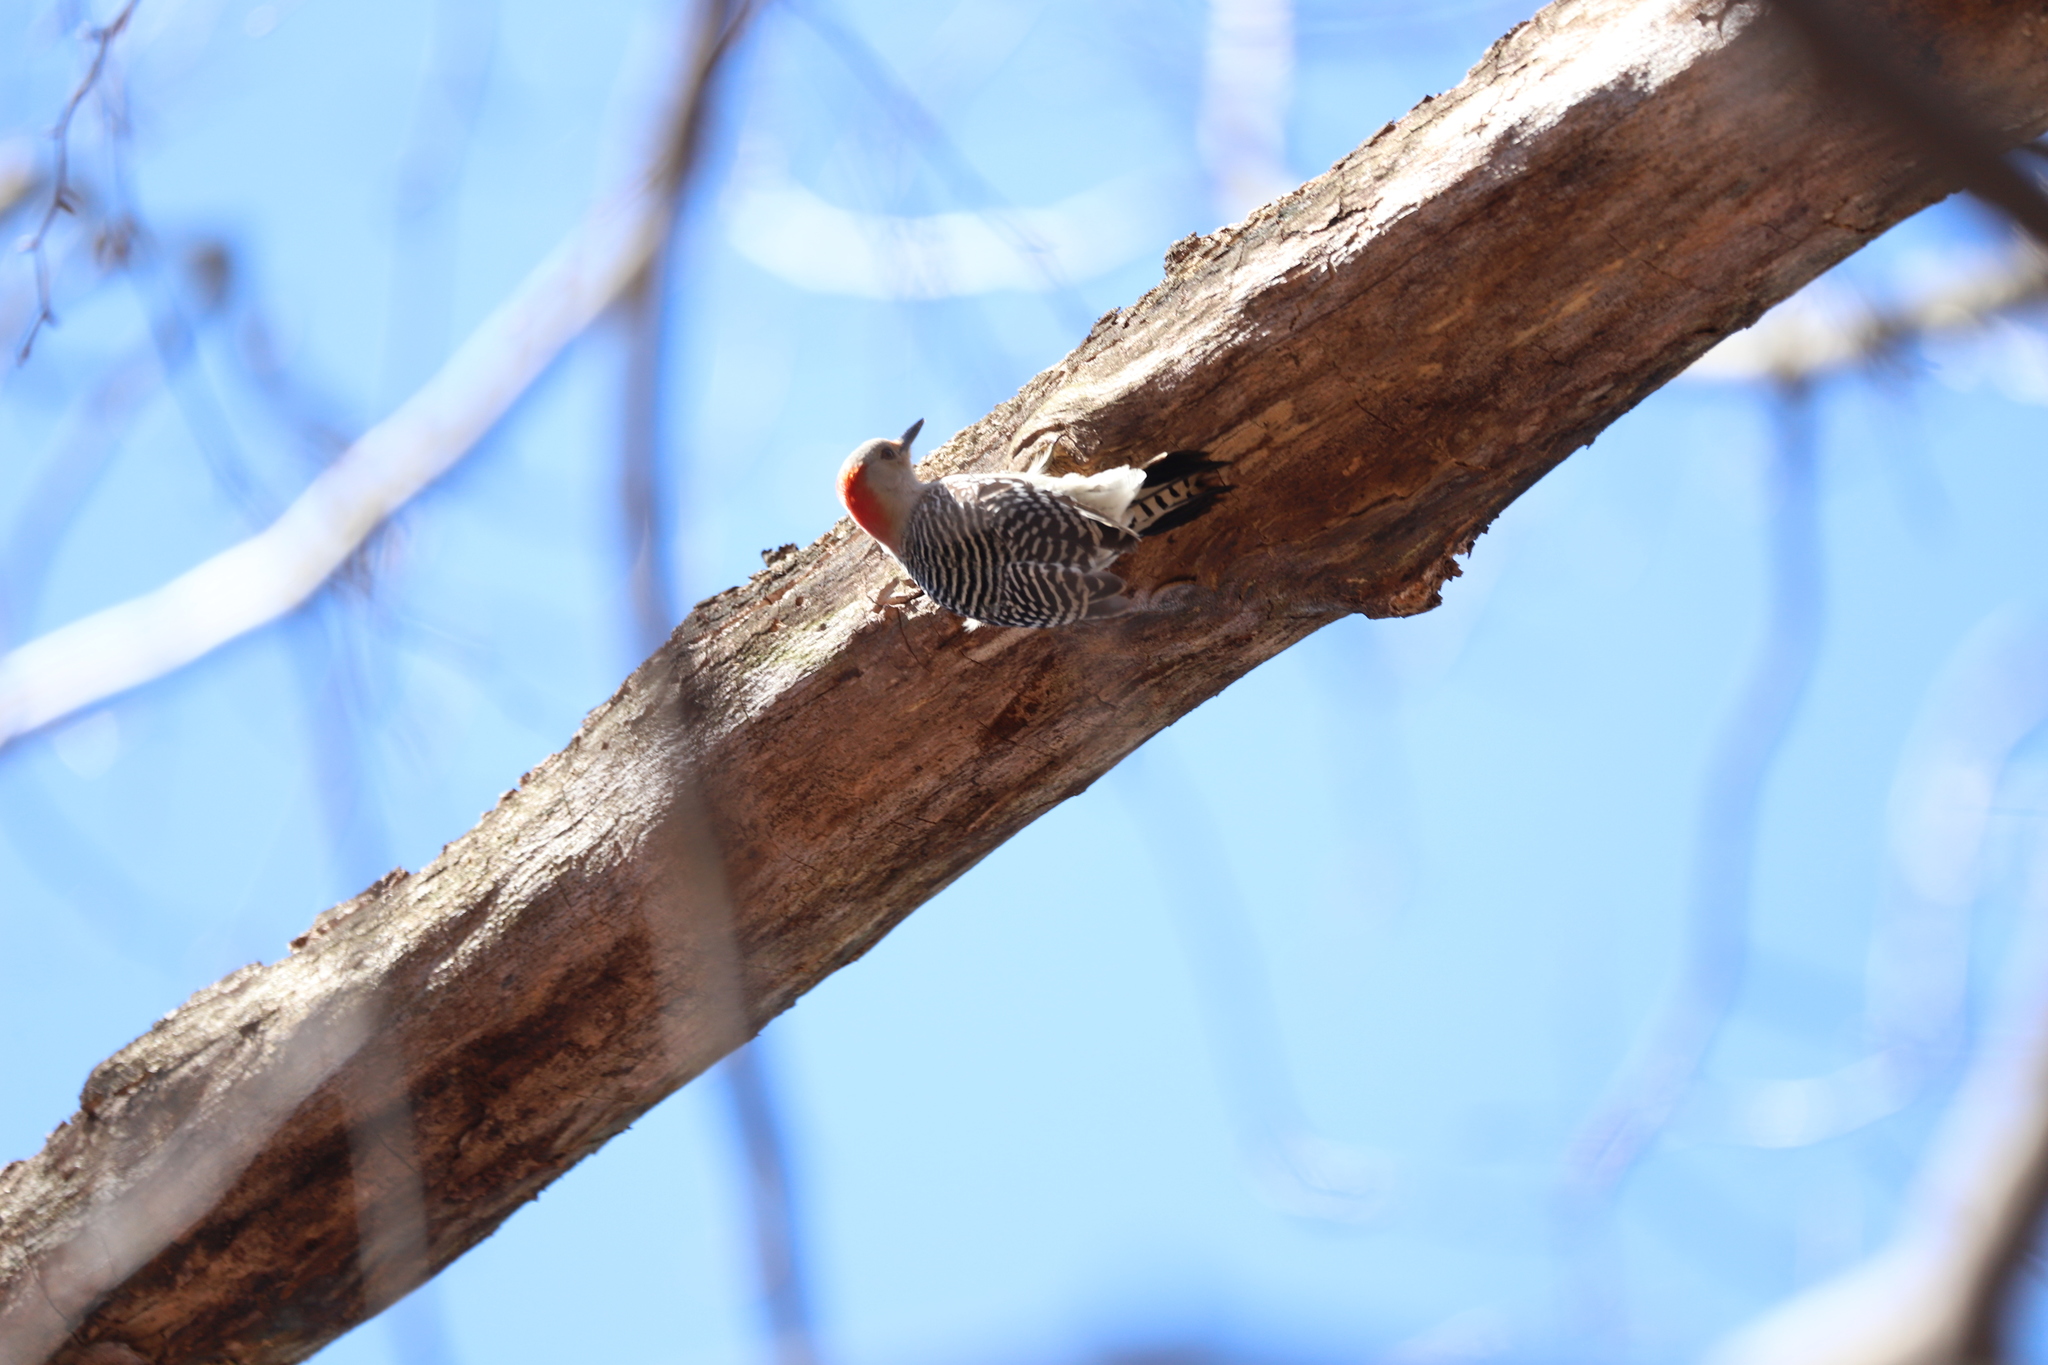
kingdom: Animalia
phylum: Chordata
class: Aves
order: Piciformes
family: Picidae
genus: Melanerpes
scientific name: Melanerpes carolinus
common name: Red-bellied woodpecker
